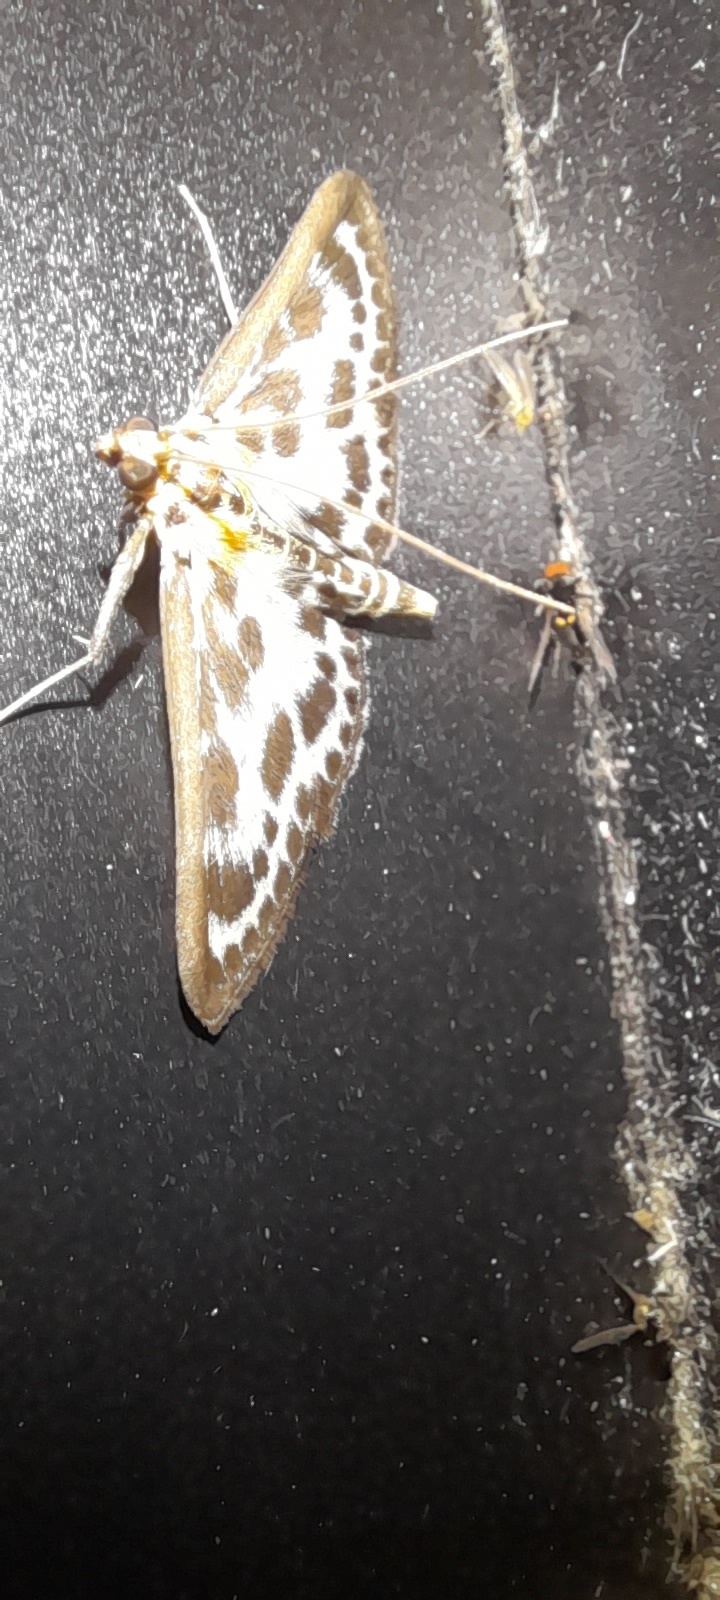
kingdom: Animalia
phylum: Arthropoda
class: Insecta
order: Lepidoptera
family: Crambidae
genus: Anania
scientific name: Anania hortulata
